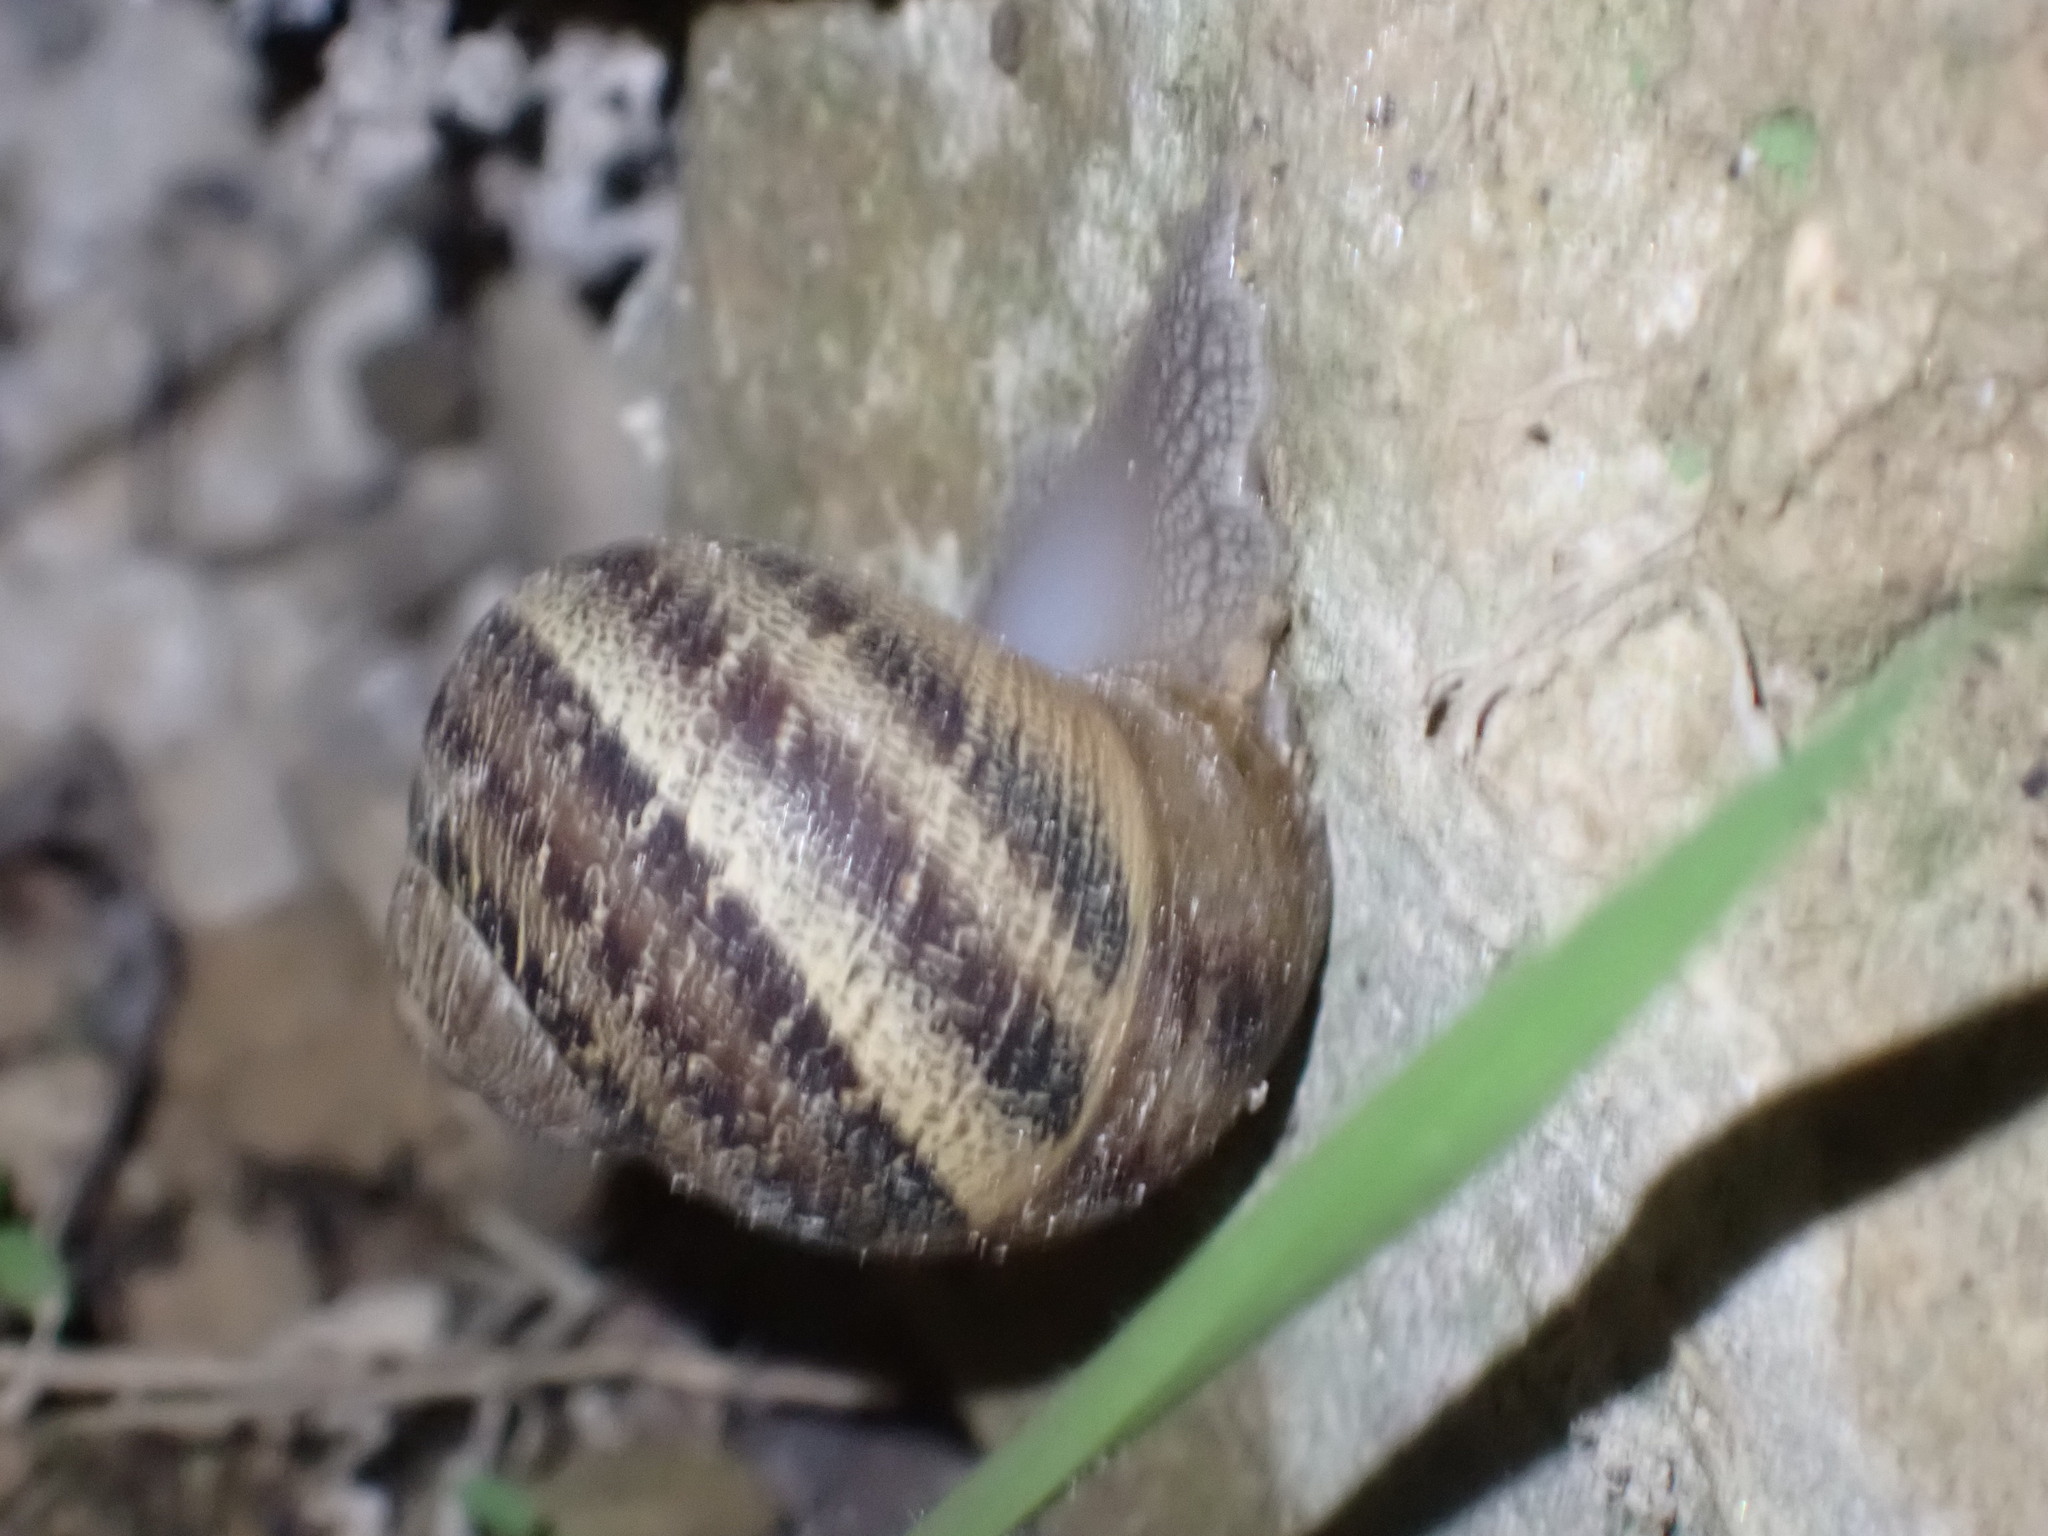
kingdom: Animalia
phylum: Mollusca
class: Gastropoda
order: Stylommatophora
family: Helicidae
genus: Cornu
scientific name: Cornu aspersum
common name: Brown garden snail
